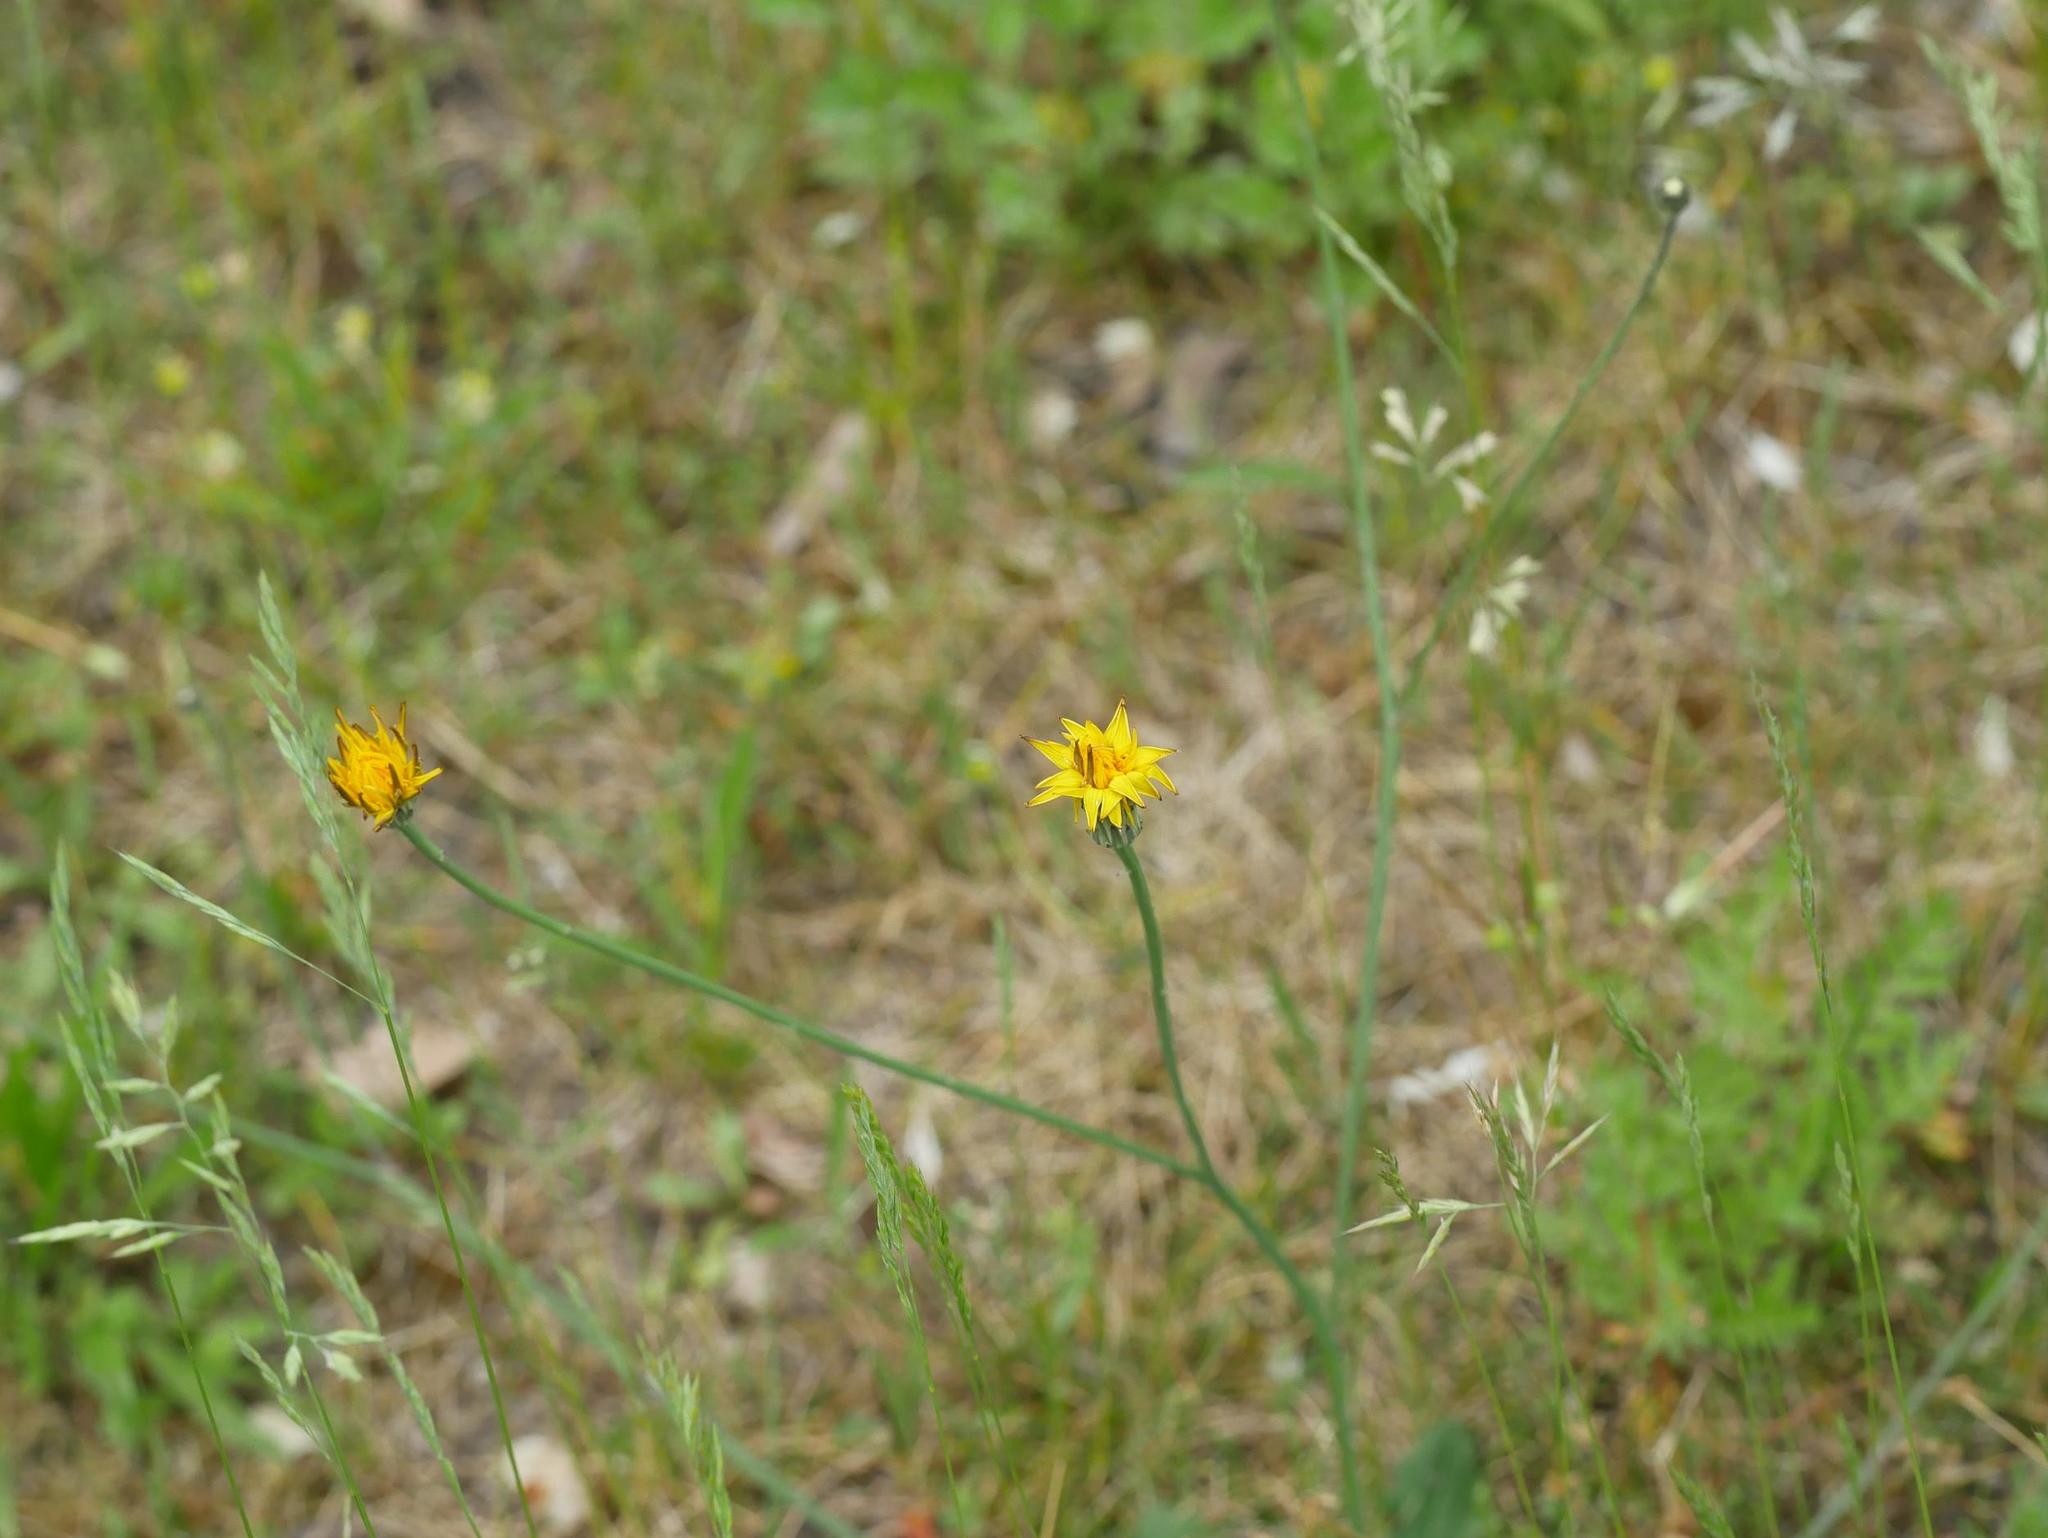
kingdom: Plantae
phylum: Tracheophyta
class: Magnoliopsida
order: Asterales
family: Asteraceae
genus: Hypochaeris
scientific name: Hypochaeris radicata
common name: Flatweed
